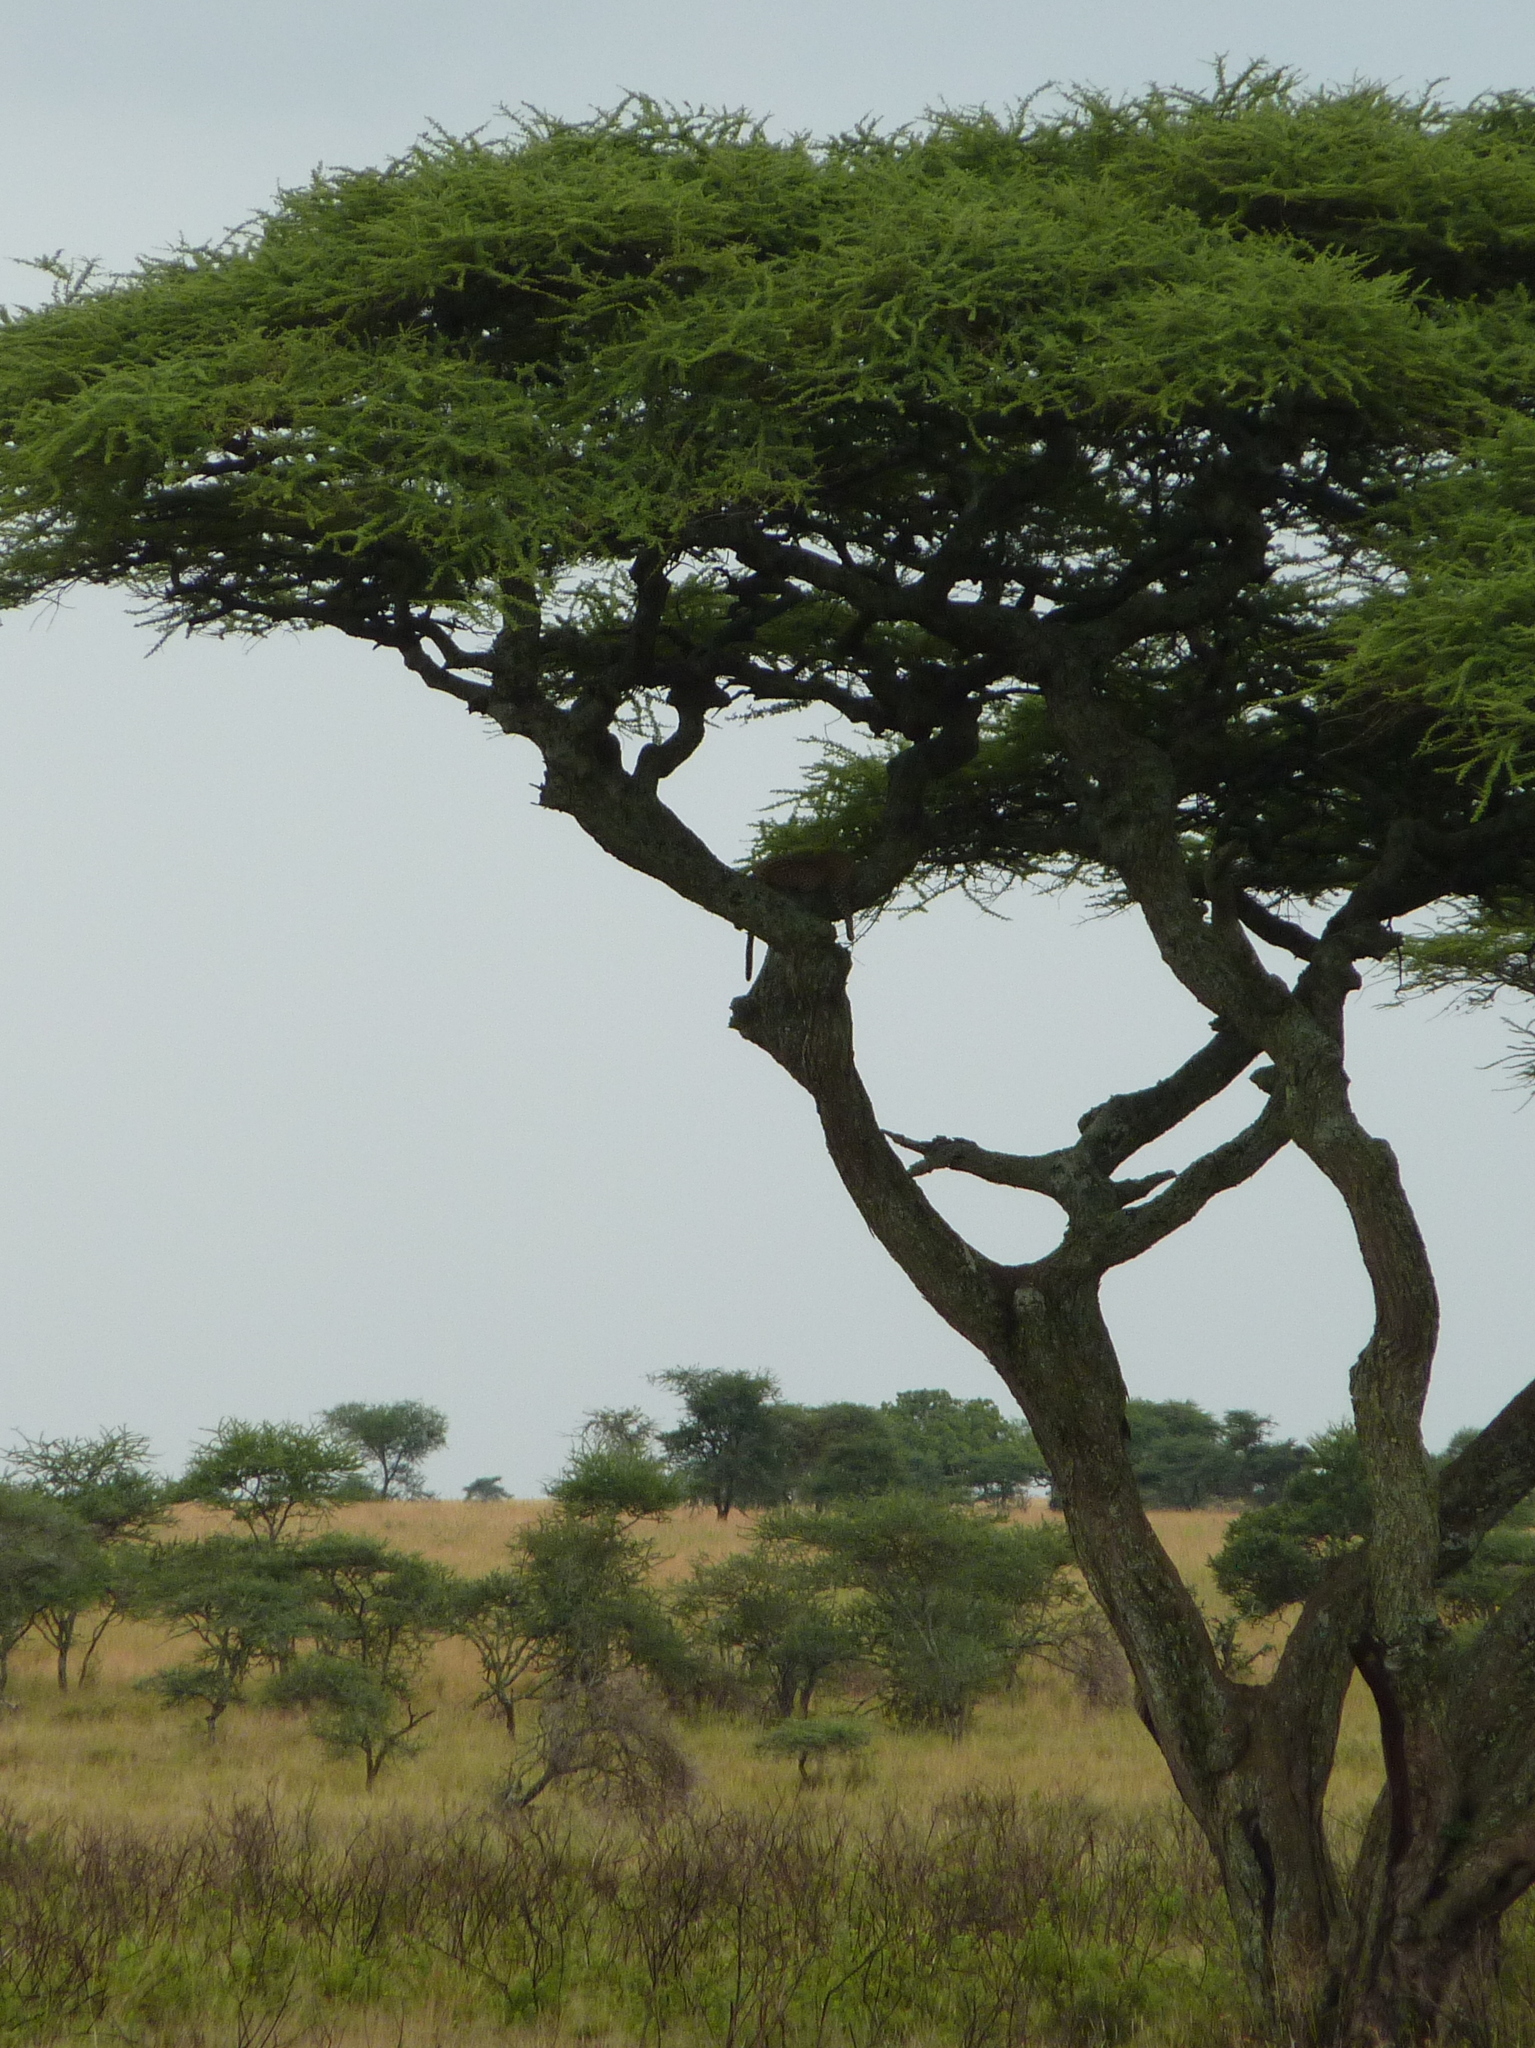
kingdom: Animalia
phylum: Chordata
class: Mammalia
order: Carnivora
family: Felidae
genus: Panthera
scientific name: Panthera pardus
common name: Leopard
